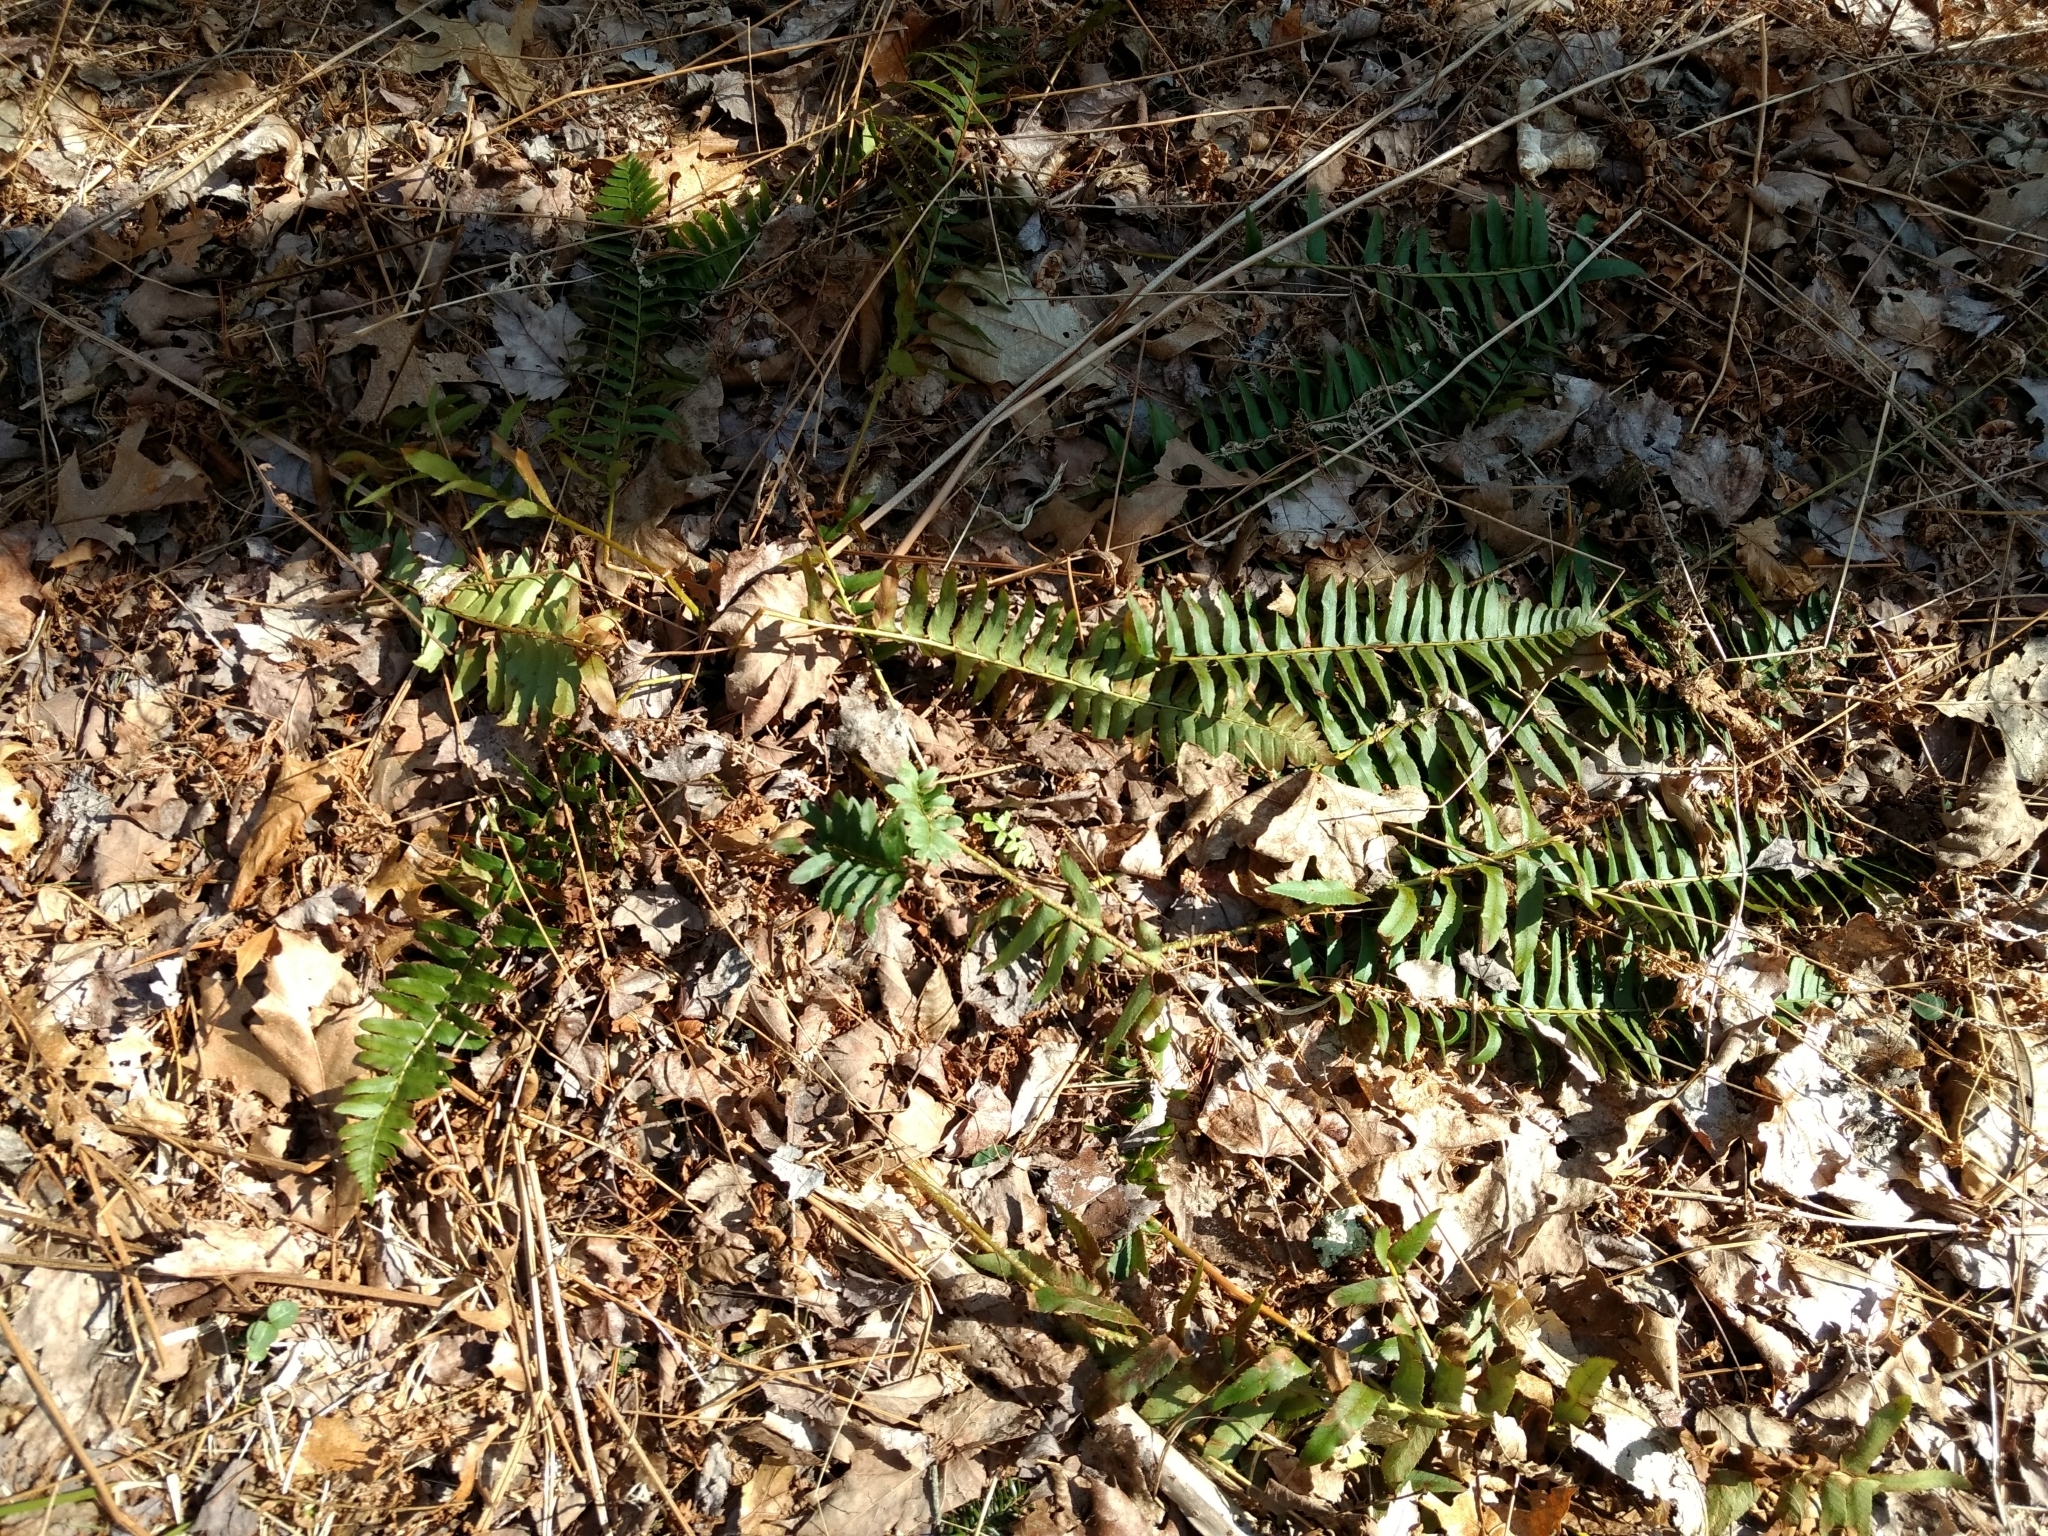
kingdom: Plantae
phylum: Tracheophyta
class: Polypodiopsida
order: Polypodiales
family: Dryopteridaceae
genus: Polystichum
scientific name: Polystichum acrostichoides
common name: Christmas fern
